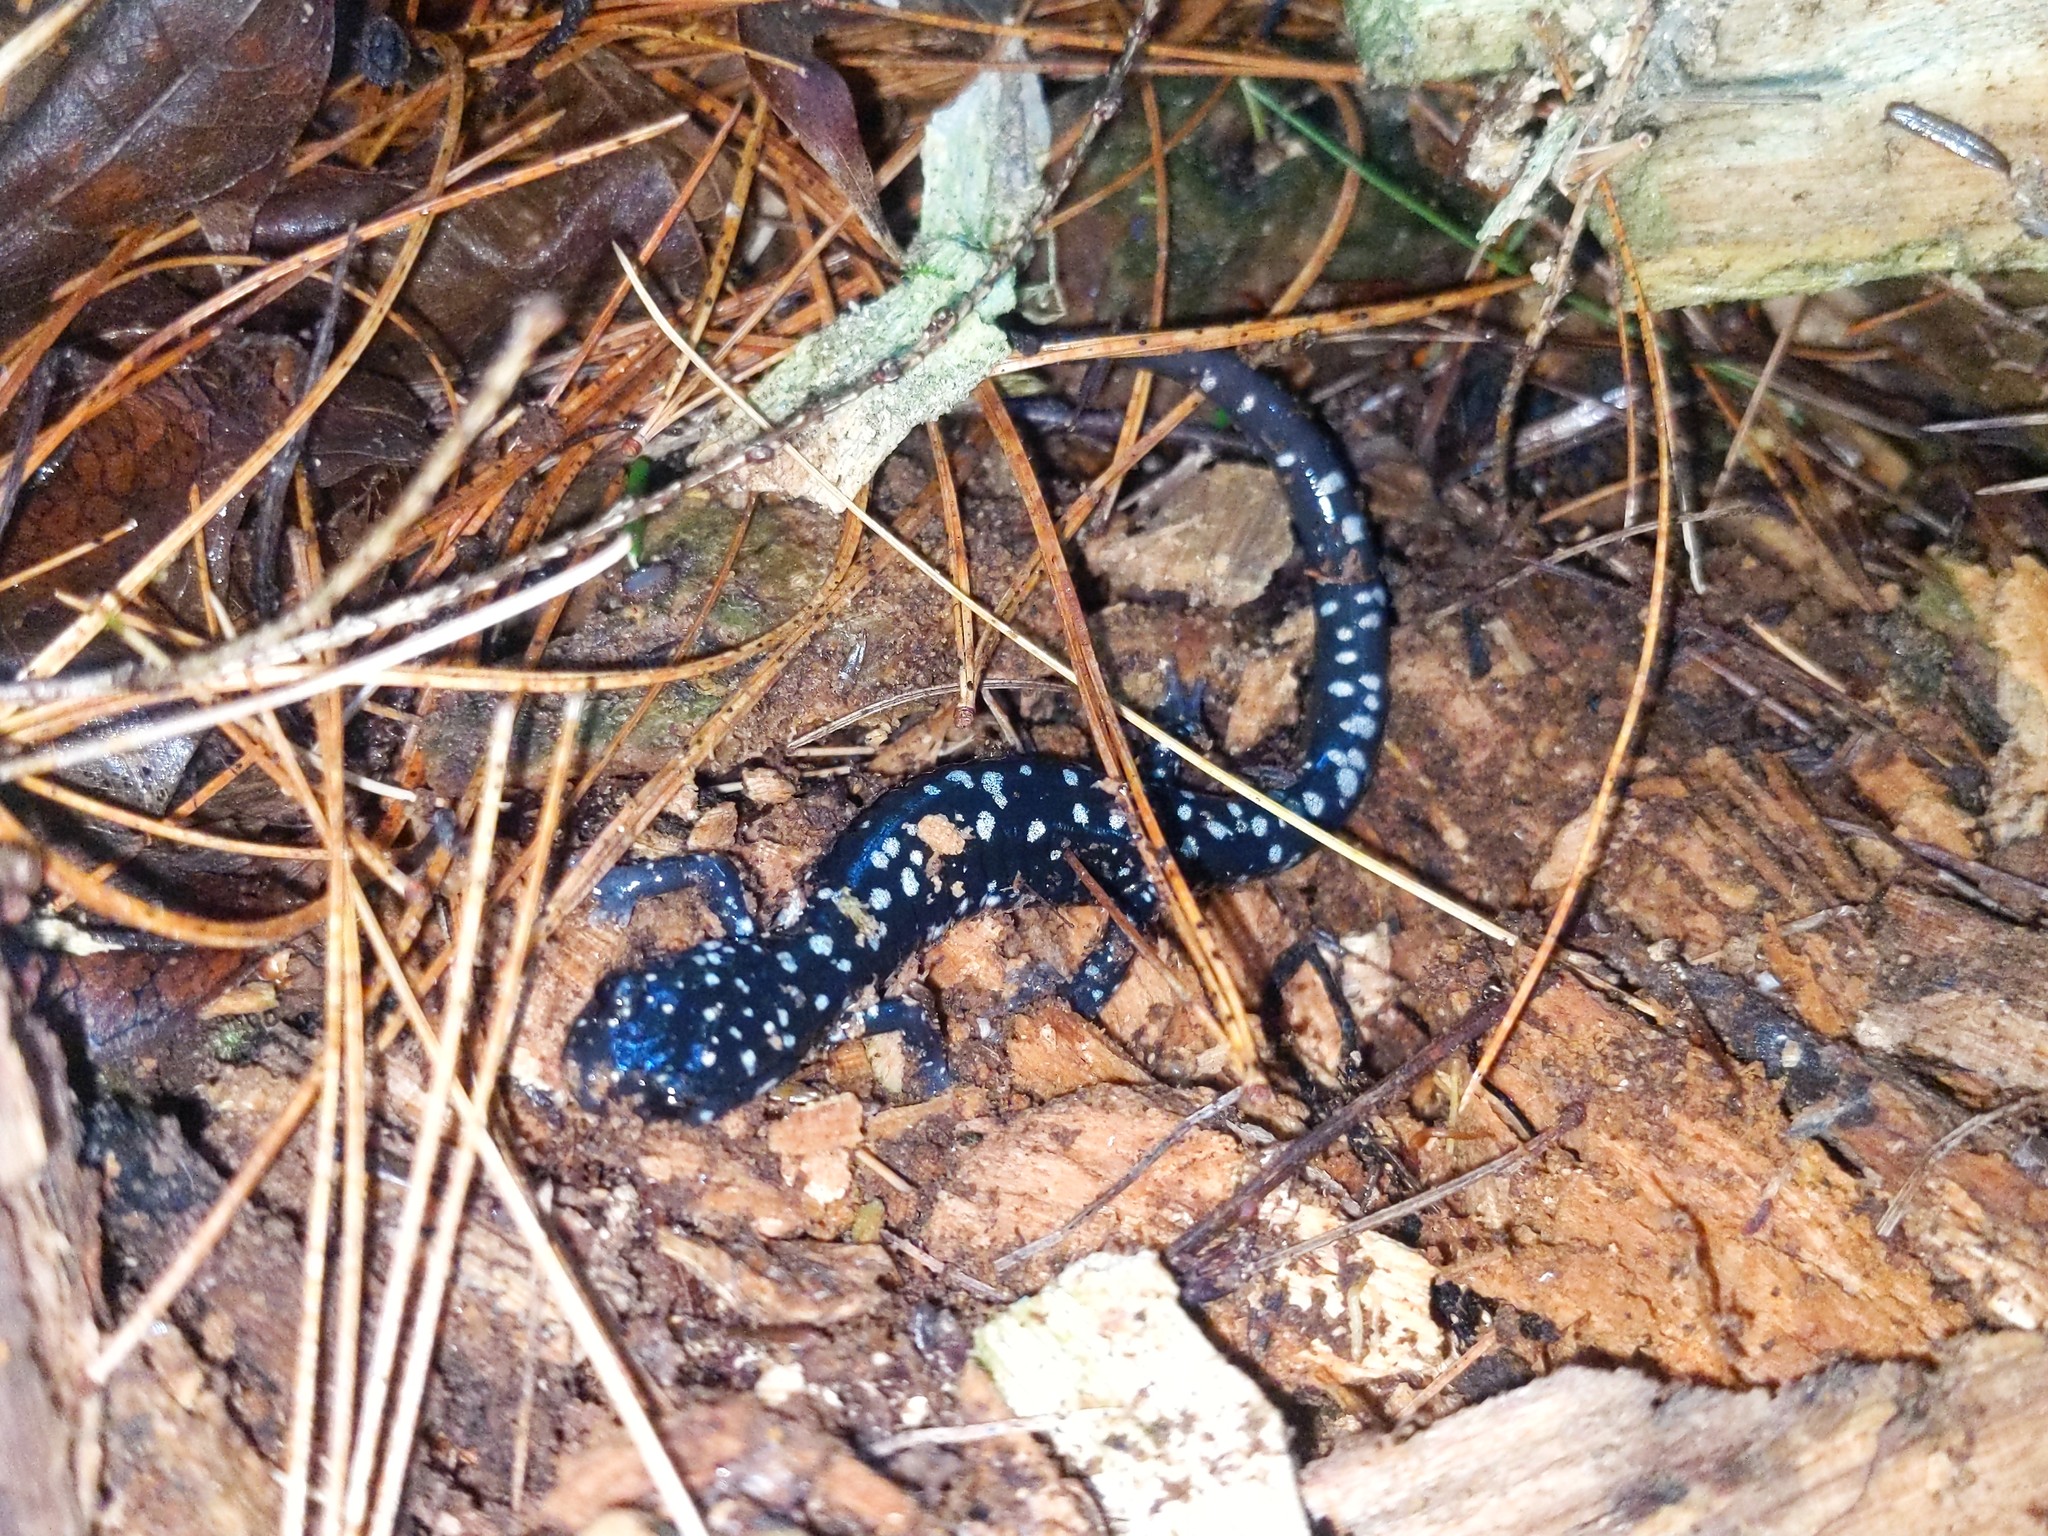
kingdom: Animalia
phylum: Chordata
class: Amphibia
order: Caudata
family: Plethodontidae
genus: Plethodon
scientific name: Plethodon glutinosus
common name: Northern slimy salamander
